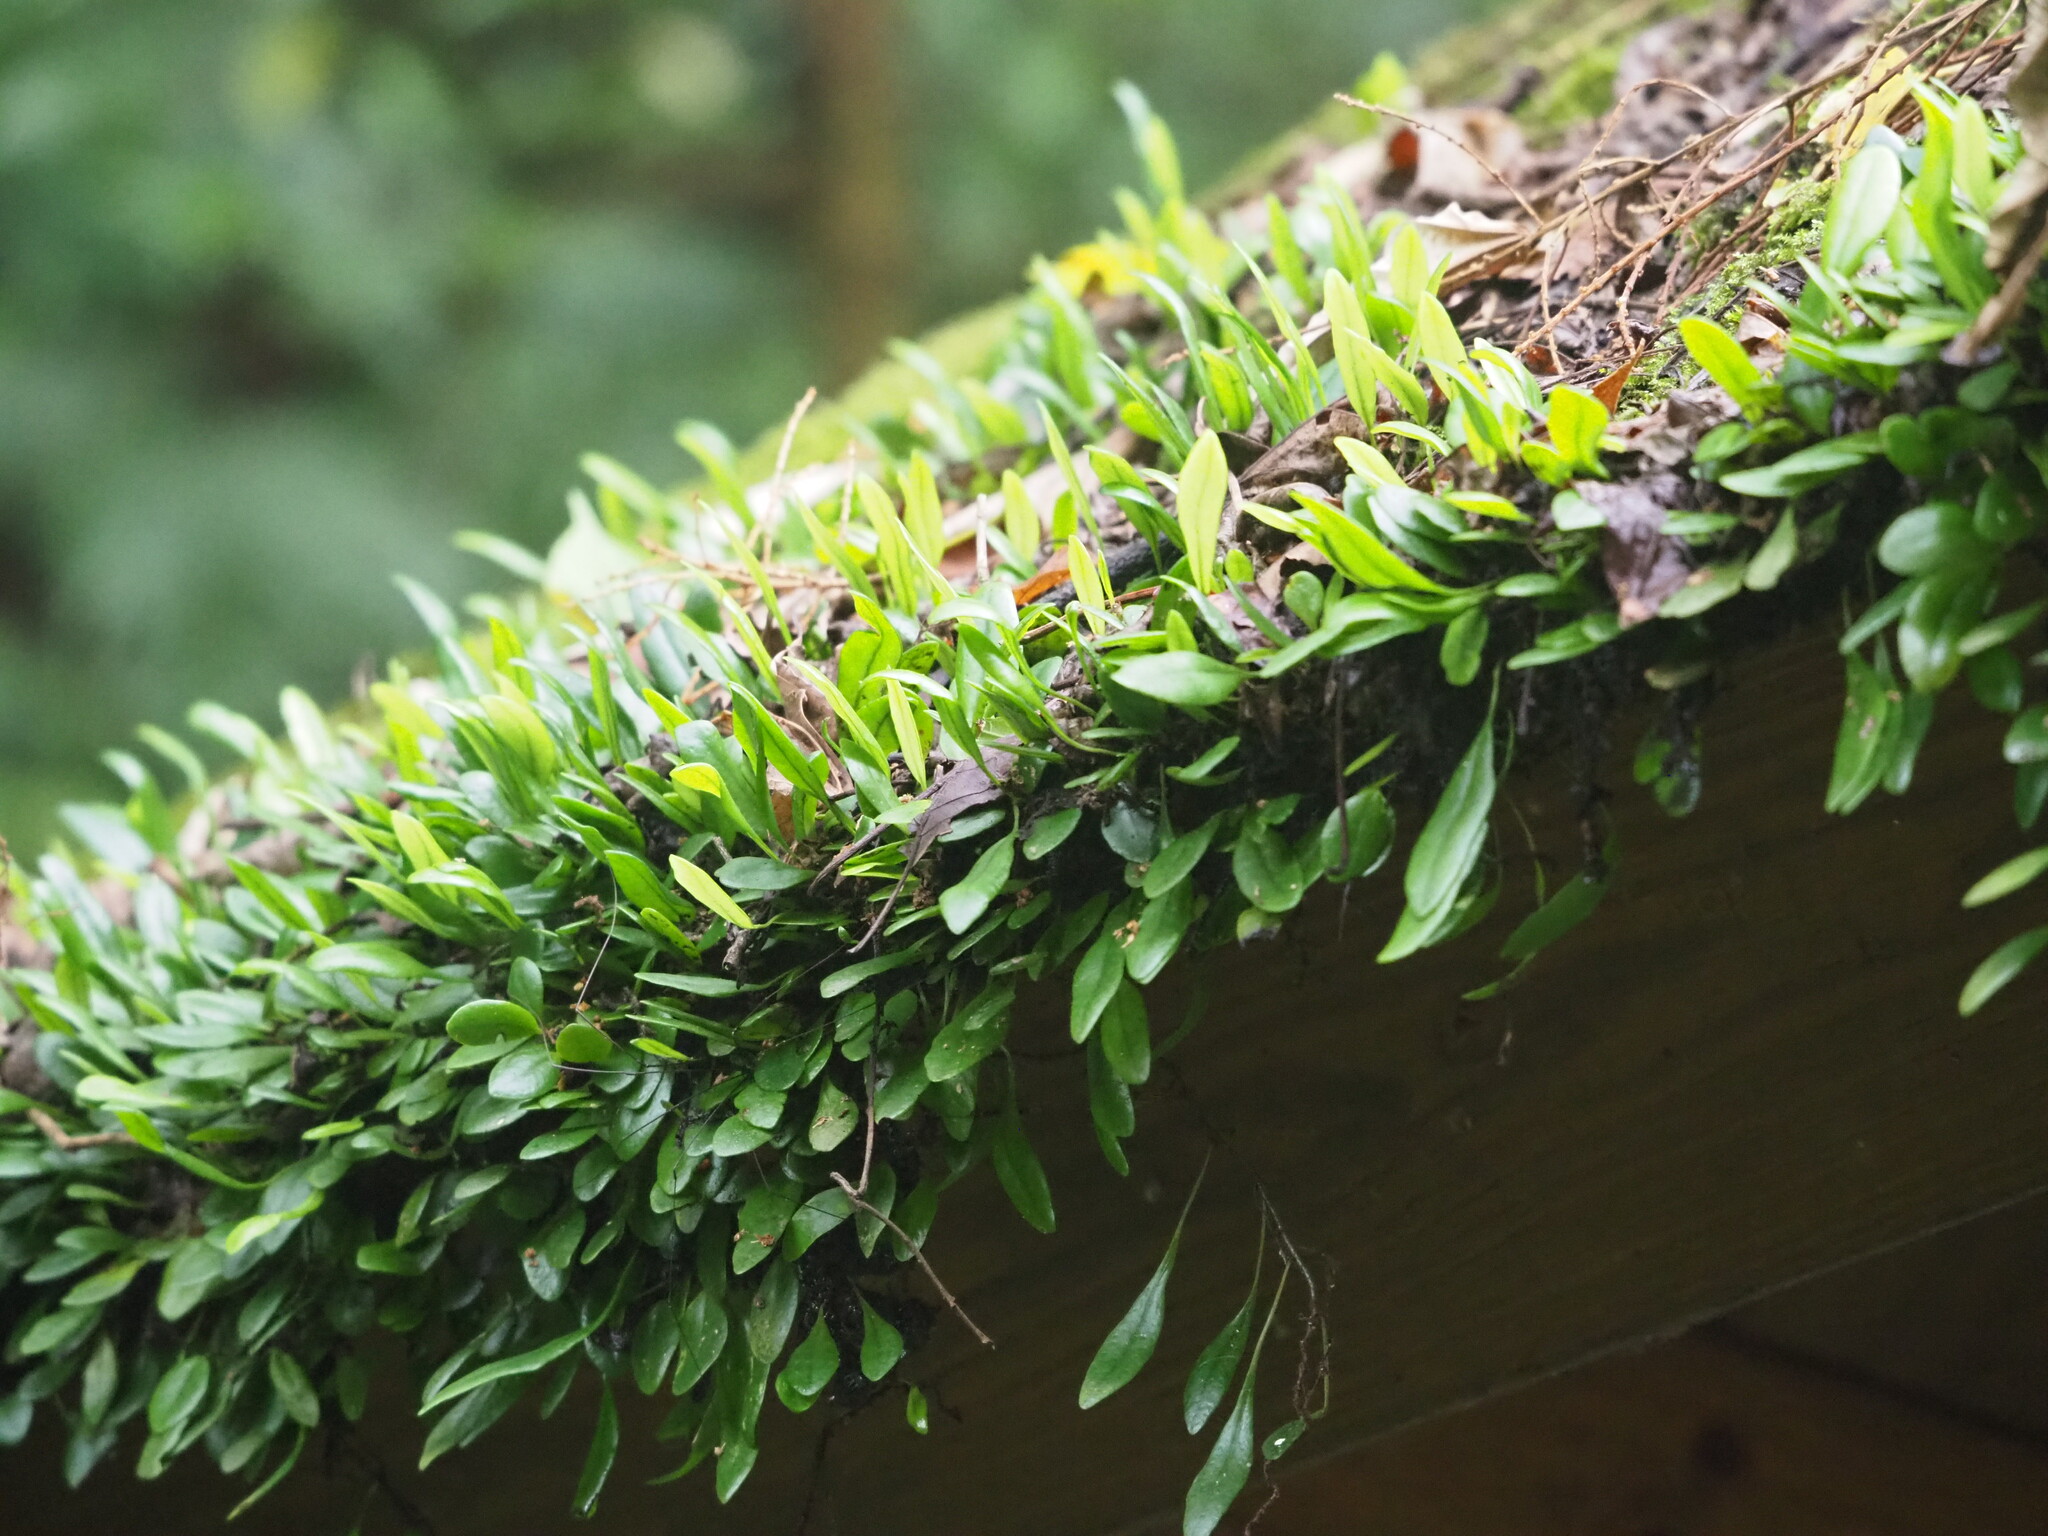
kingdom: Plantae
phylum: Tracheophyta
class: Polypodiopsida
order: Polypodiales
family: Polypodiaceae
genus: Lepisorus
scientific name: Lepisorus microphyllus
